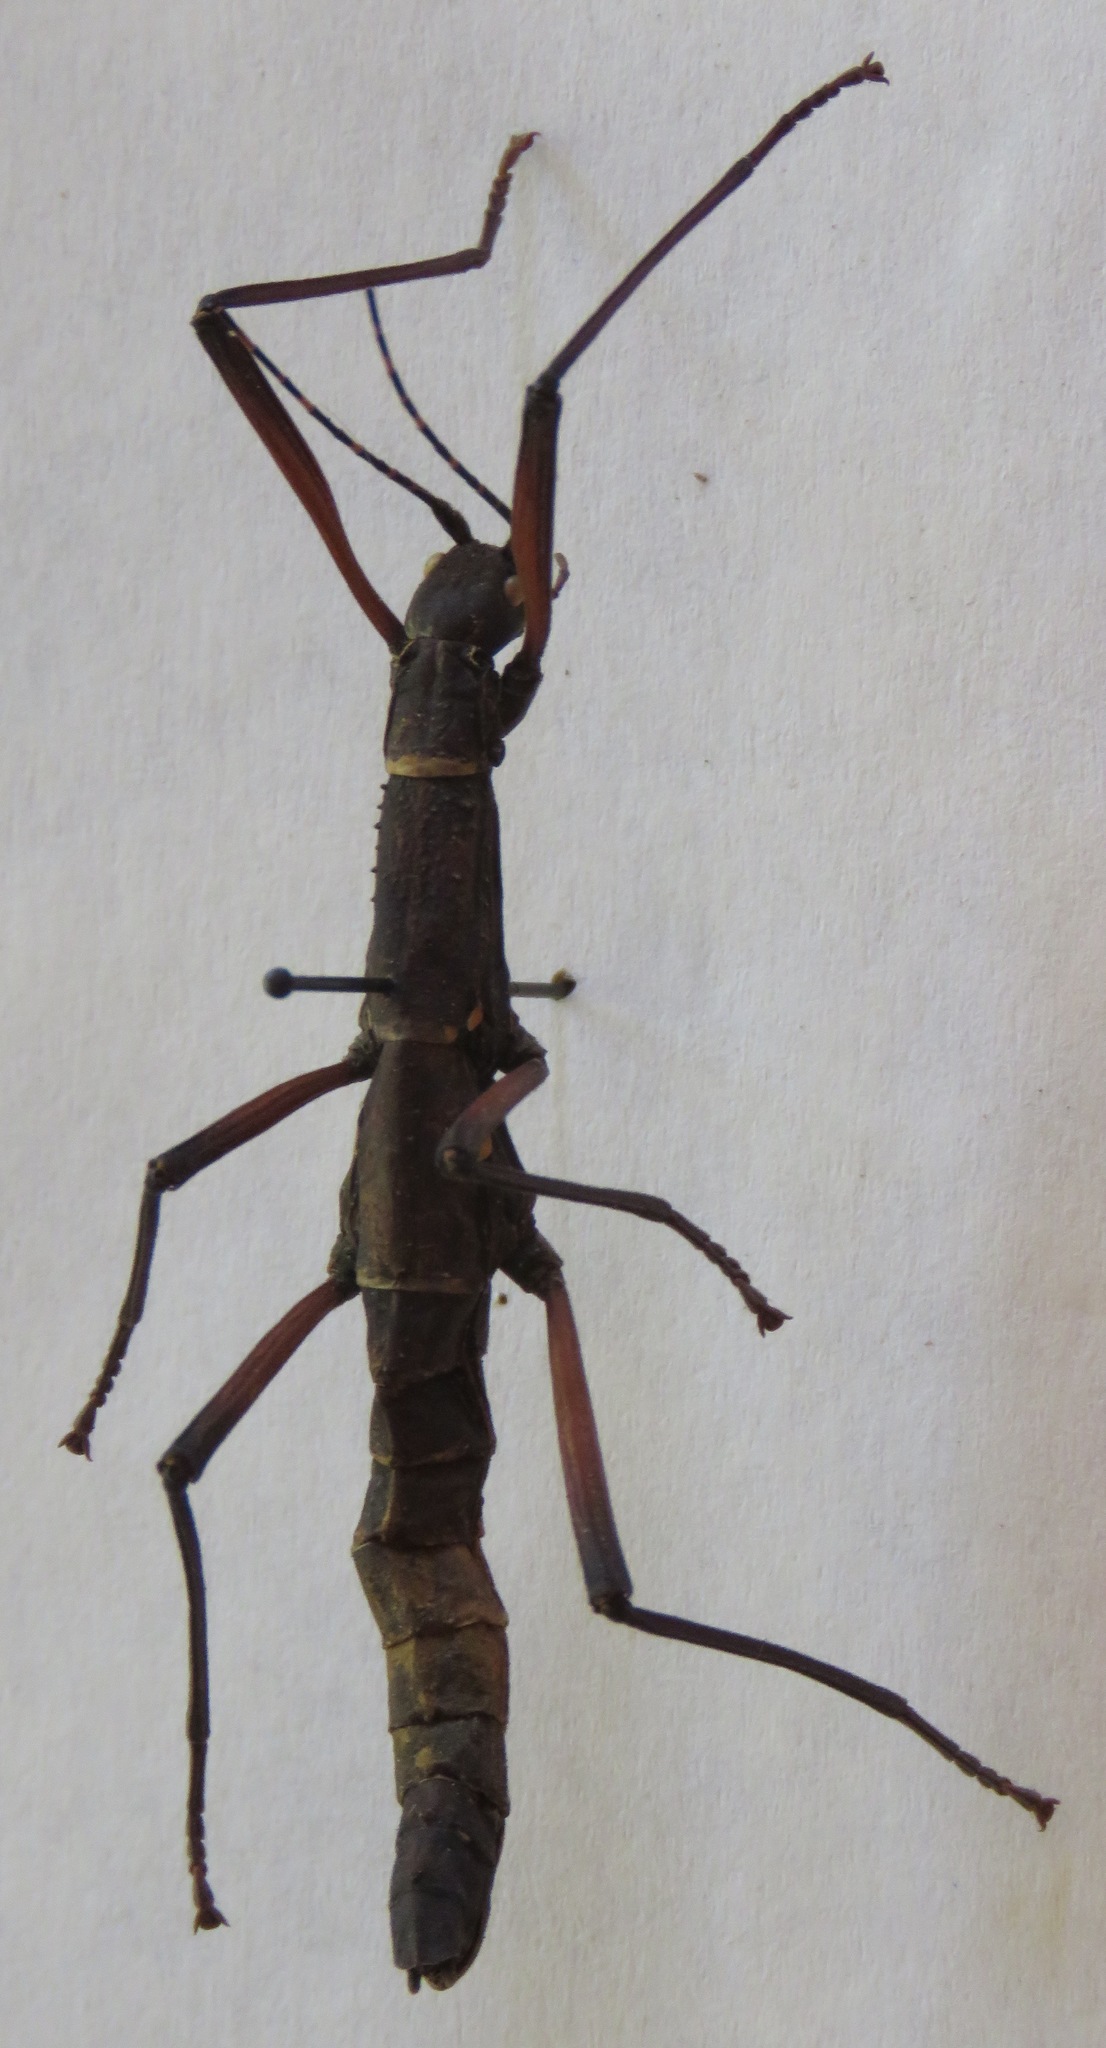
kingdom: Animalia
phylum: Arthropoda
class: Insecta
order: Phasmida
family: Pseudophasmatidae
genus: Urucumania
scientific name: Urucumania borellii
